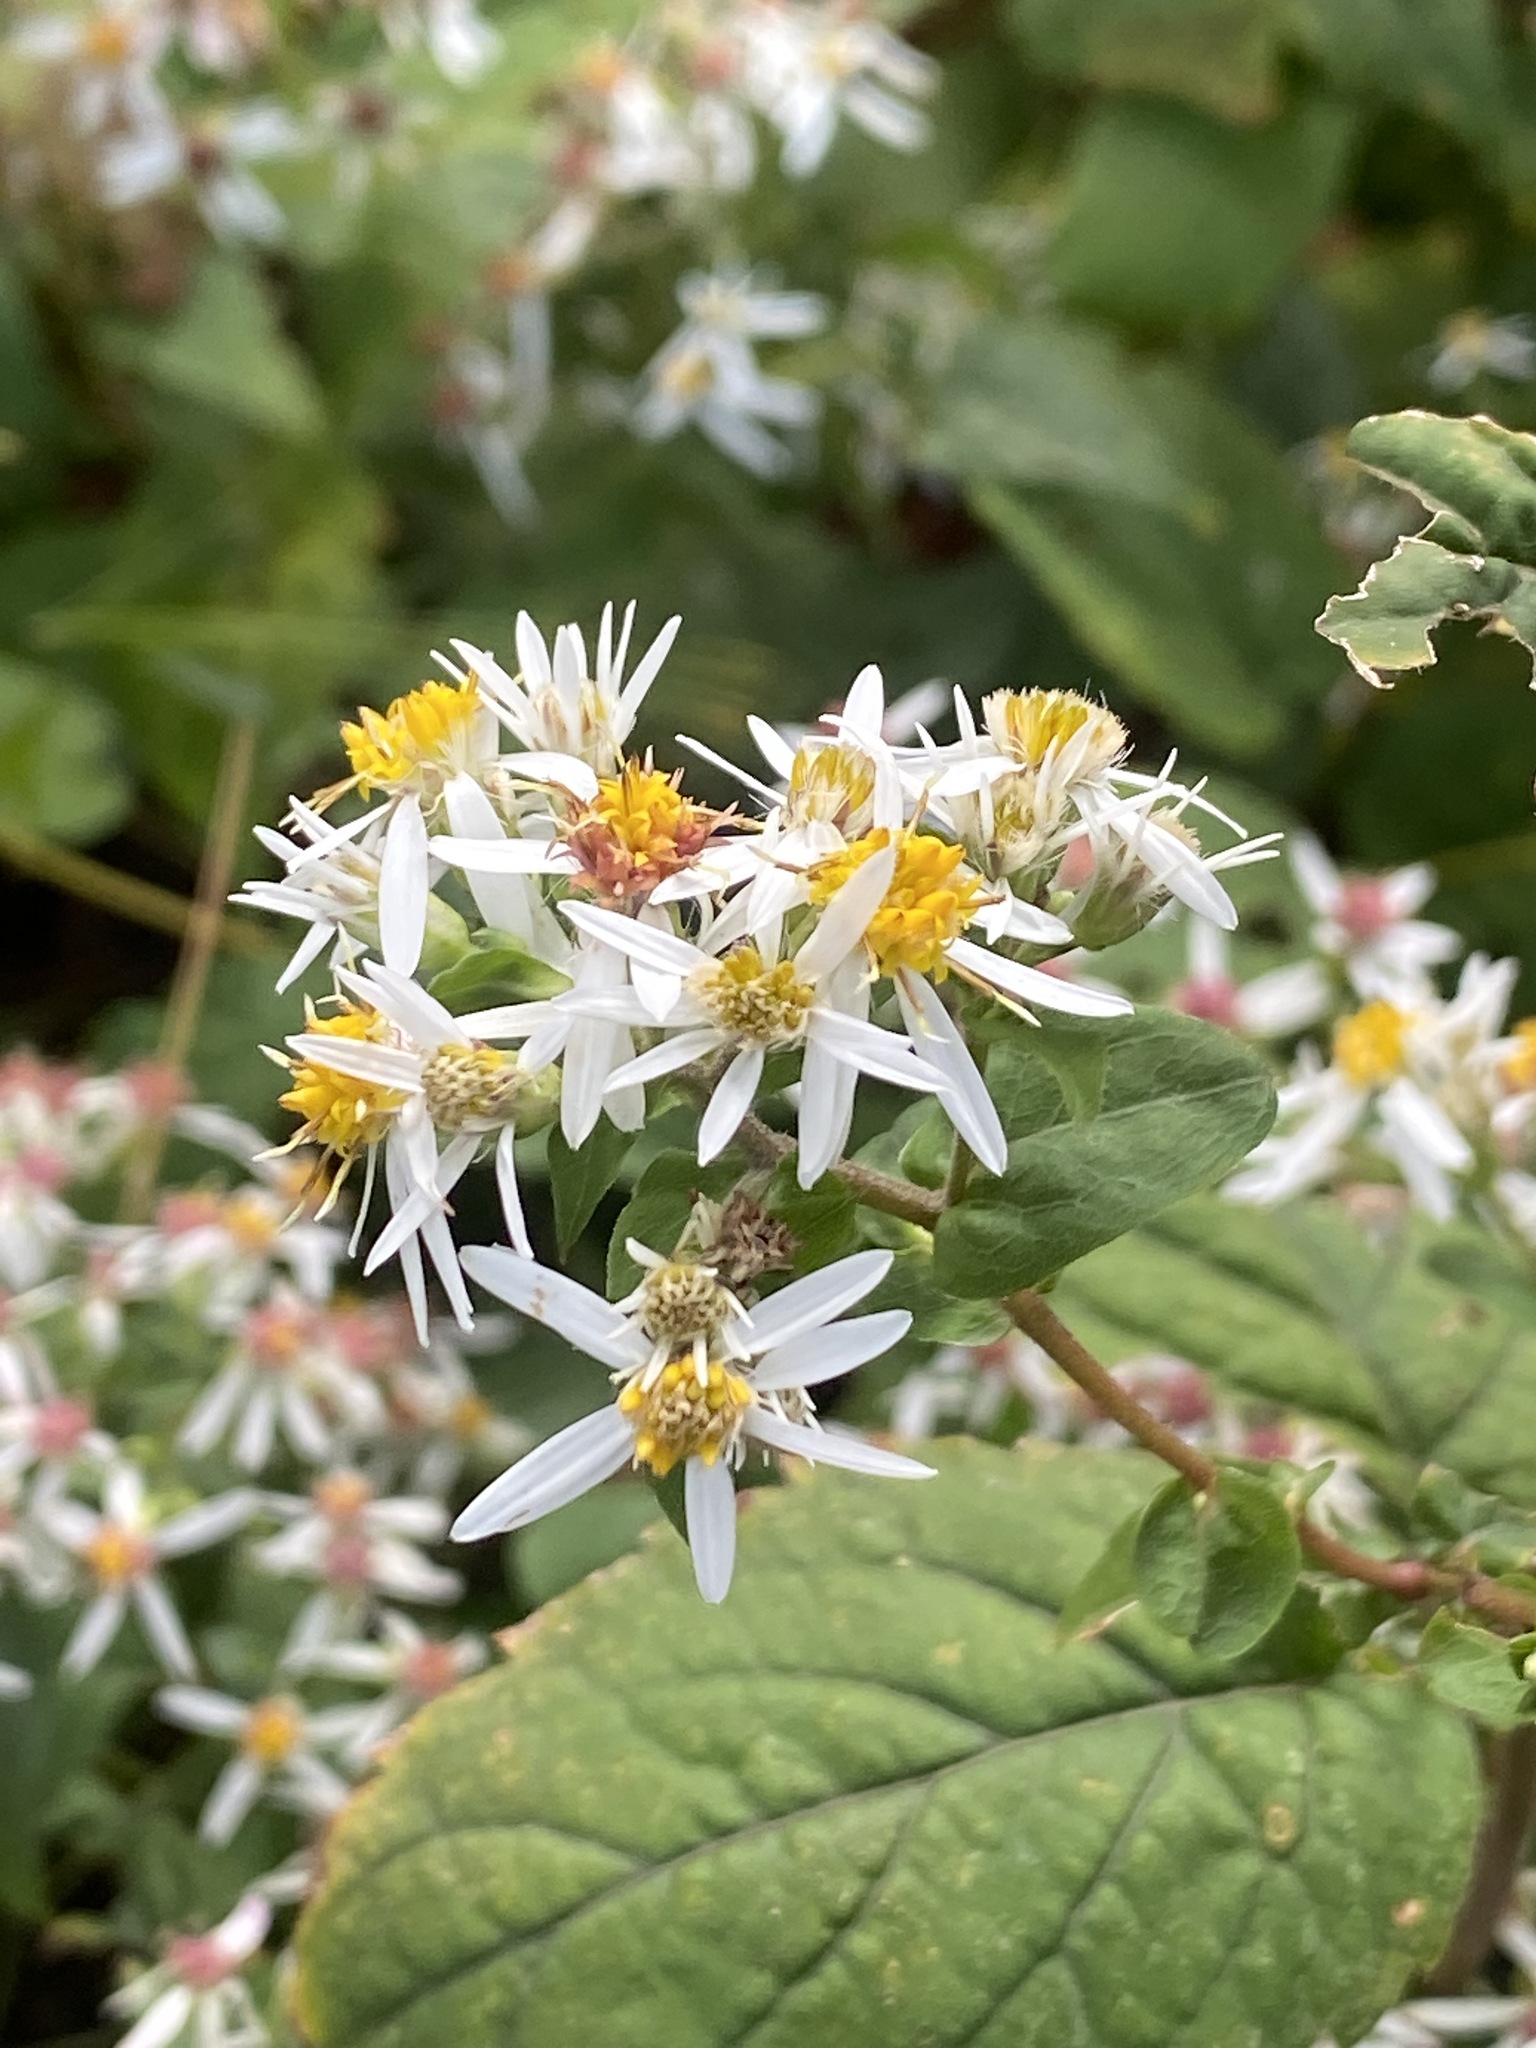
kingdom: Plantae
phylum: Tracheophyta
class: Magnoliopsida
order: Asterales
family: Asteraceae
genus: Eurybia
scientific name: Eurybia divaricata
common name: White wood aster
